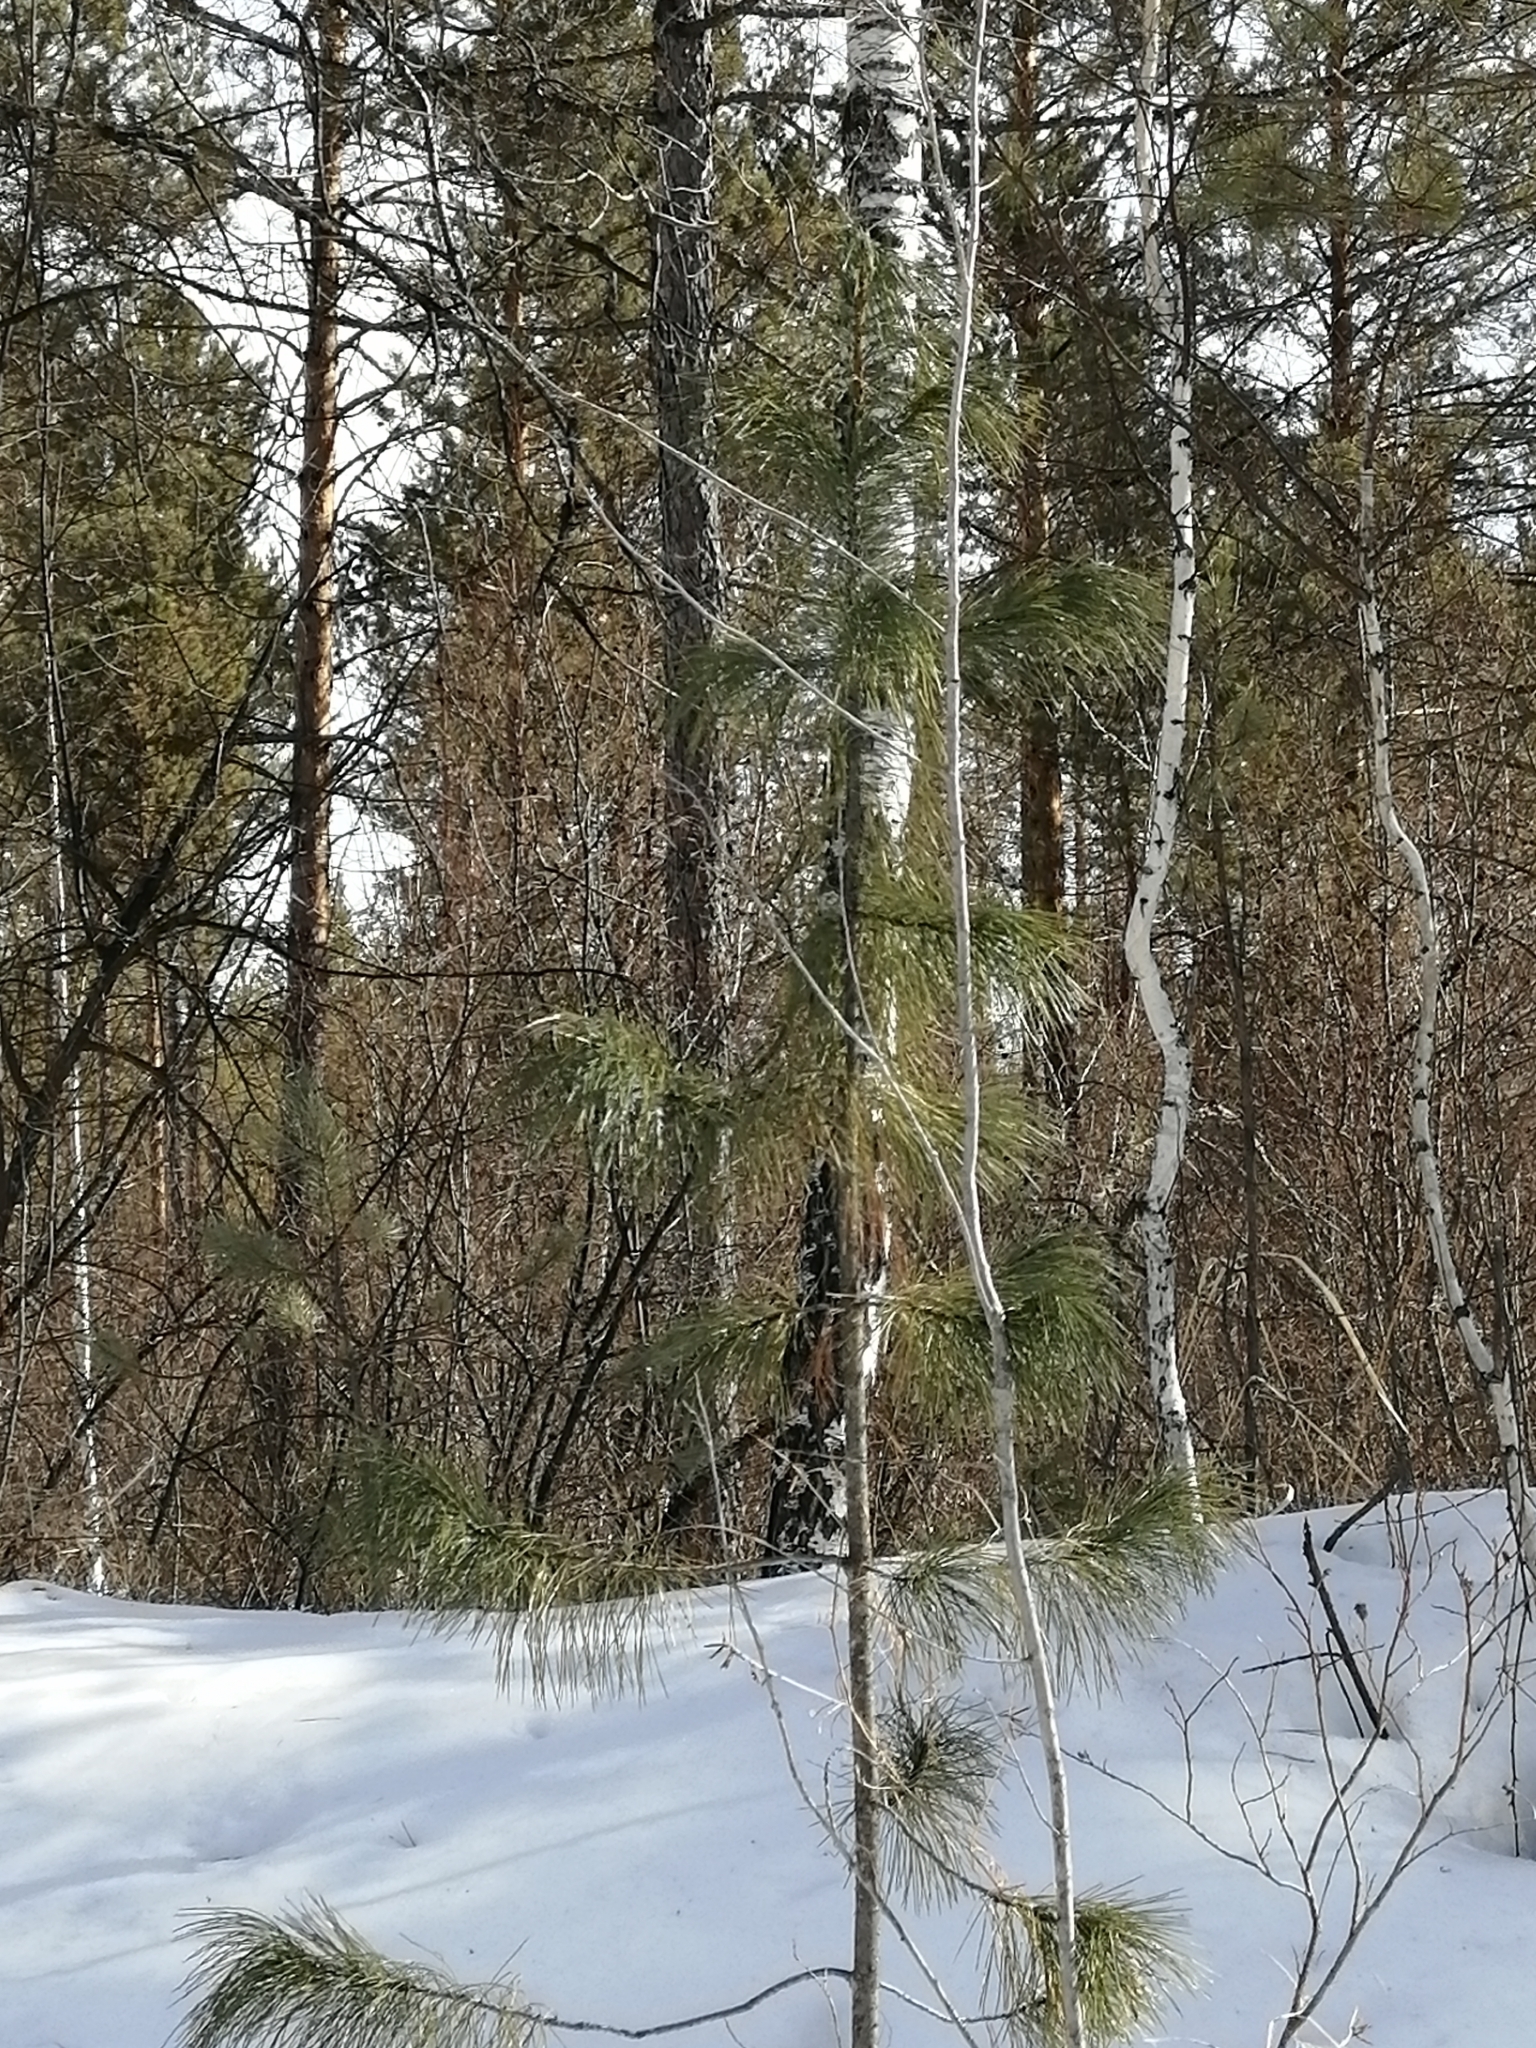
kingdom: Plantae
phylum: Tracheophyta
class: Pinopsida
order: Pinales
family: Pinaceae
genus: Pinus
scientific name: Pinus sibirica
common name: Siberian pine
